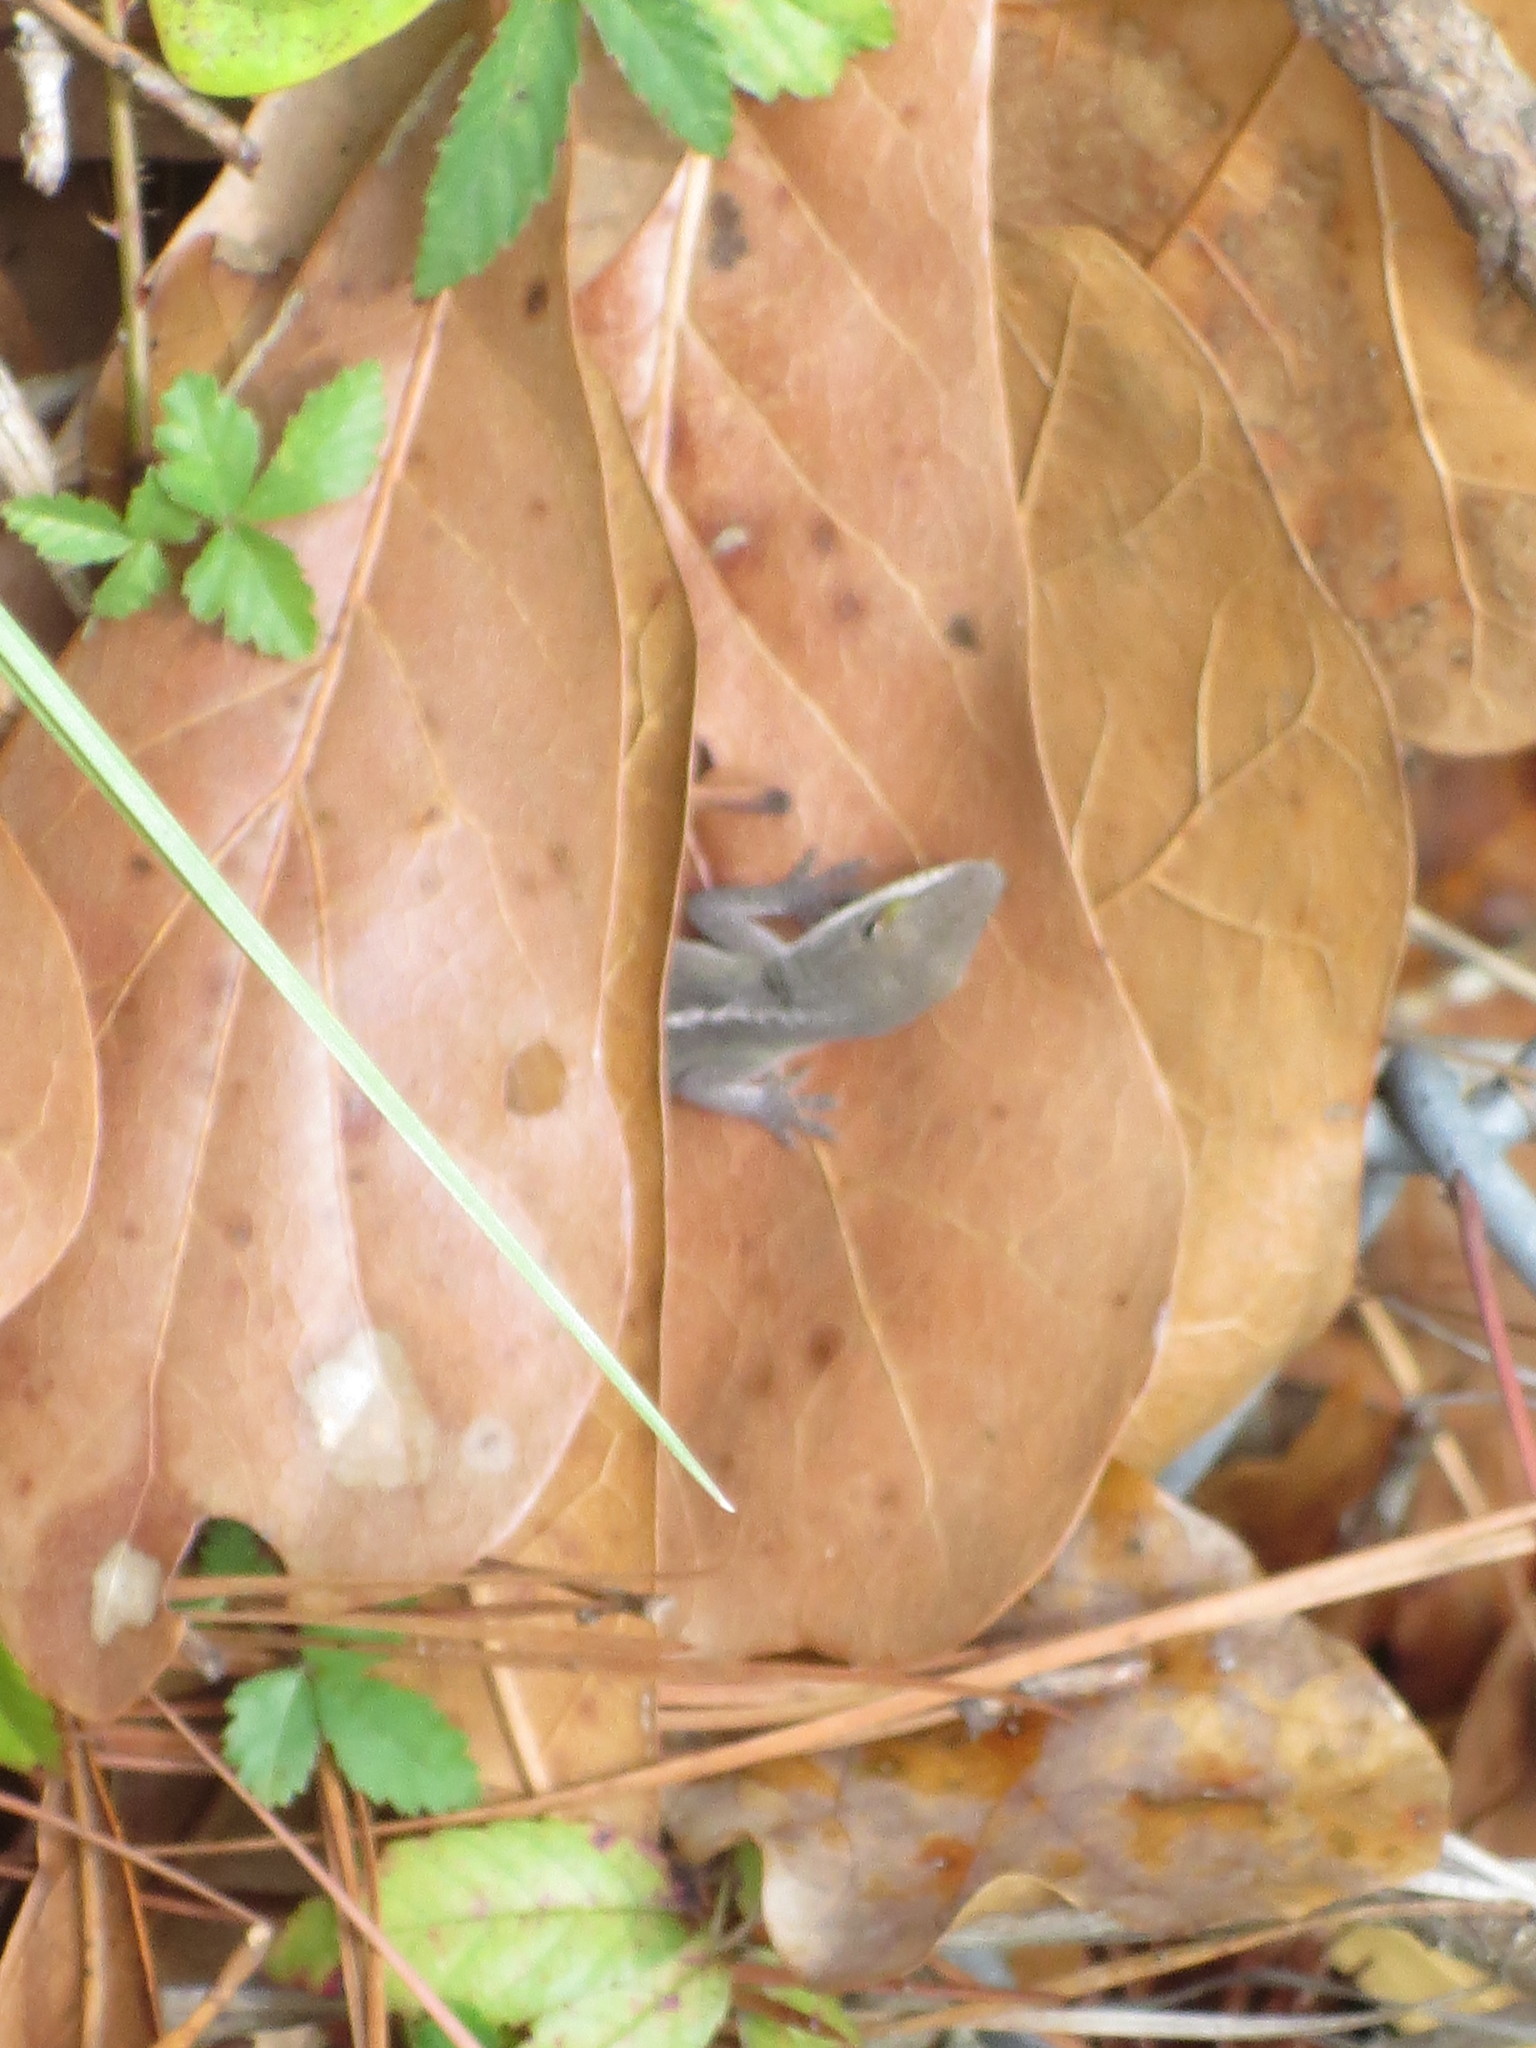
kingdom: Animalia
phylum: Chordata
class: Squamata
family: Dactyloidae
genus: Anolis
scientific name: Anolis carolinensis
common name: Green anole
